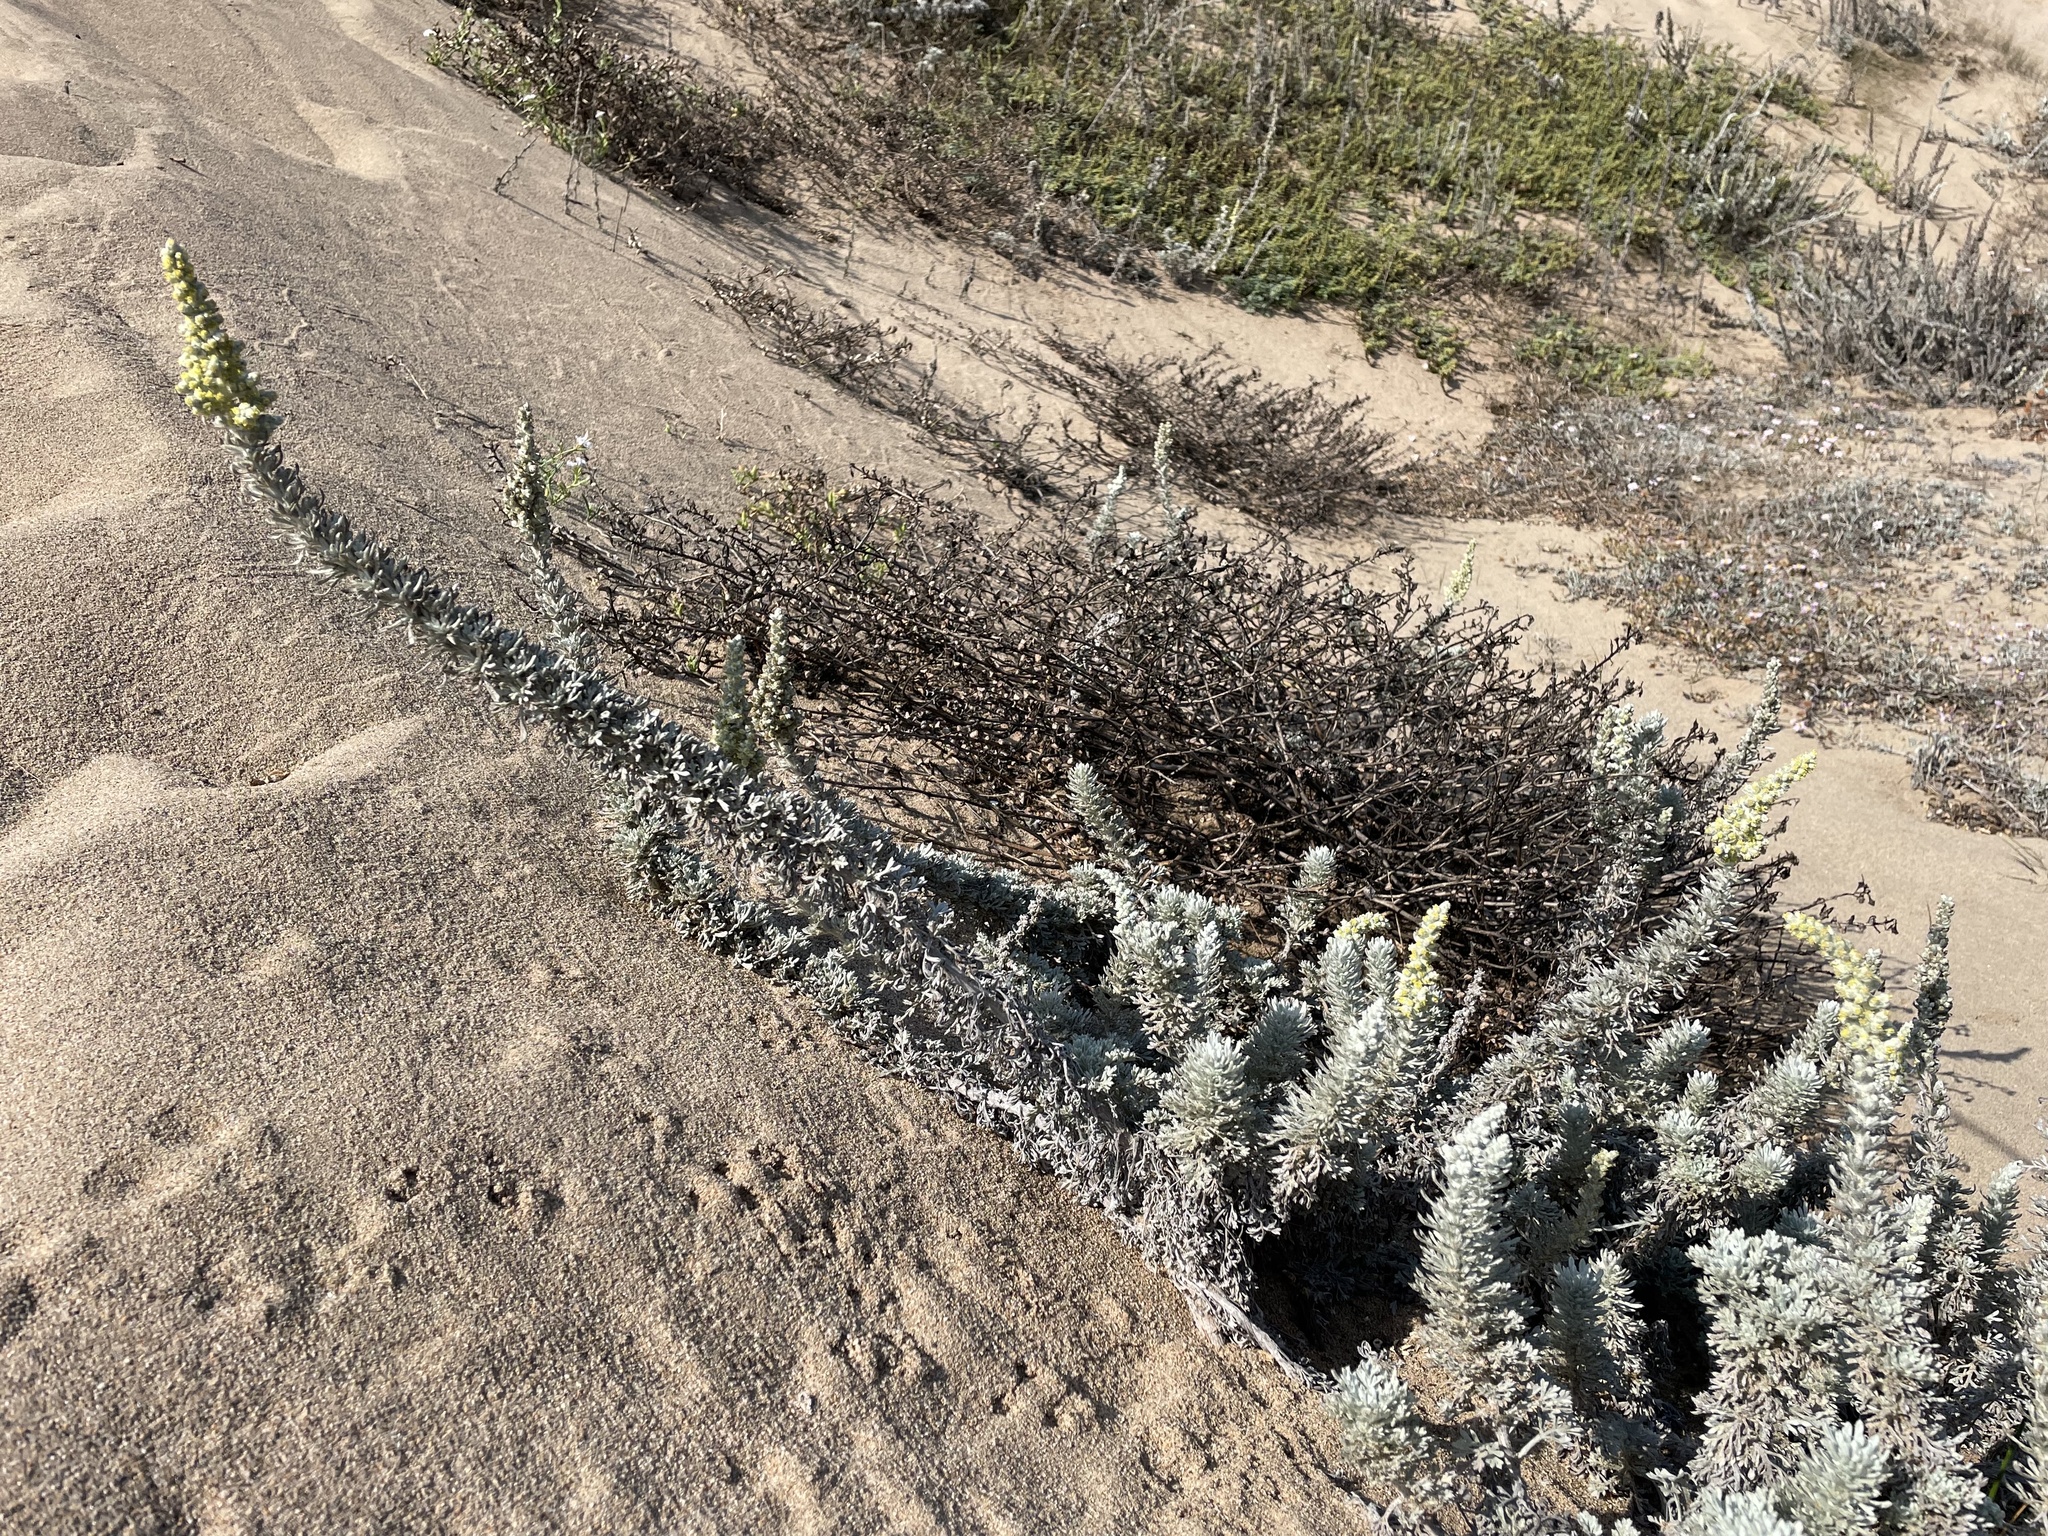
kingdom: Plantae
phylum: Tracheophyta
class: Magnoliopsida
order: Asterales
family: Asteraceae
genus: Artemisia
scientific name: Artemisia pycnocephala
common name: Coastal sagewort
